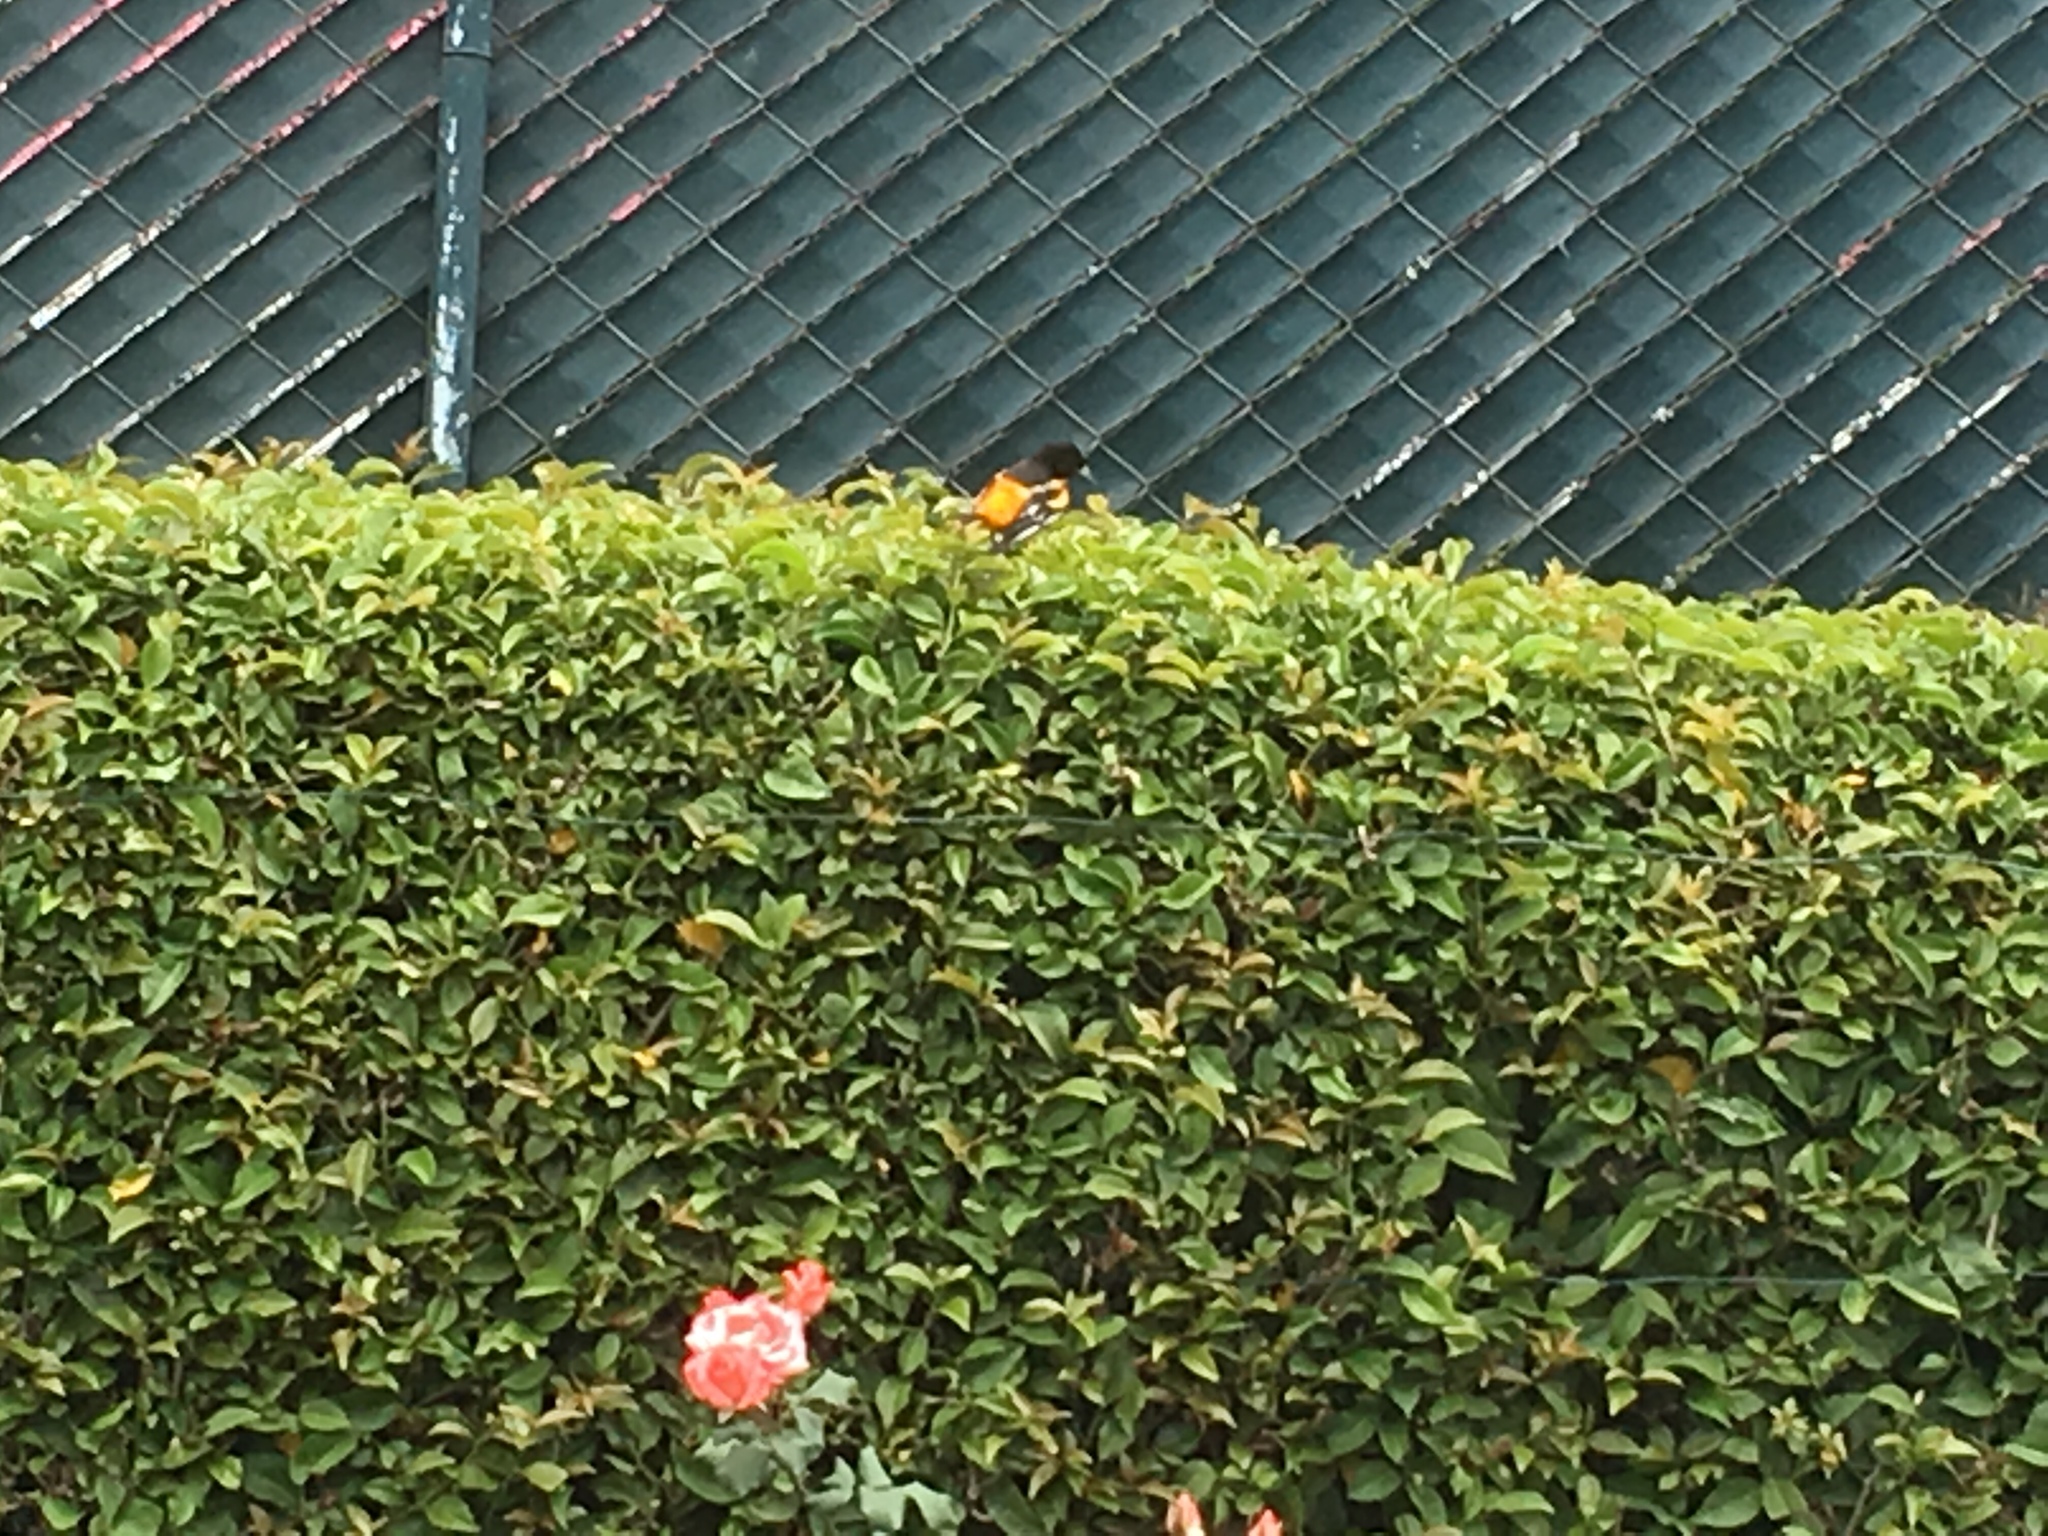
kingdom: Animalia
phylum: Chordata
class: Aves
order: Passeriformes
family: Icteridae
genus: Icterus
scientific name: Icterus galbula
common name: Baltimore oriole
